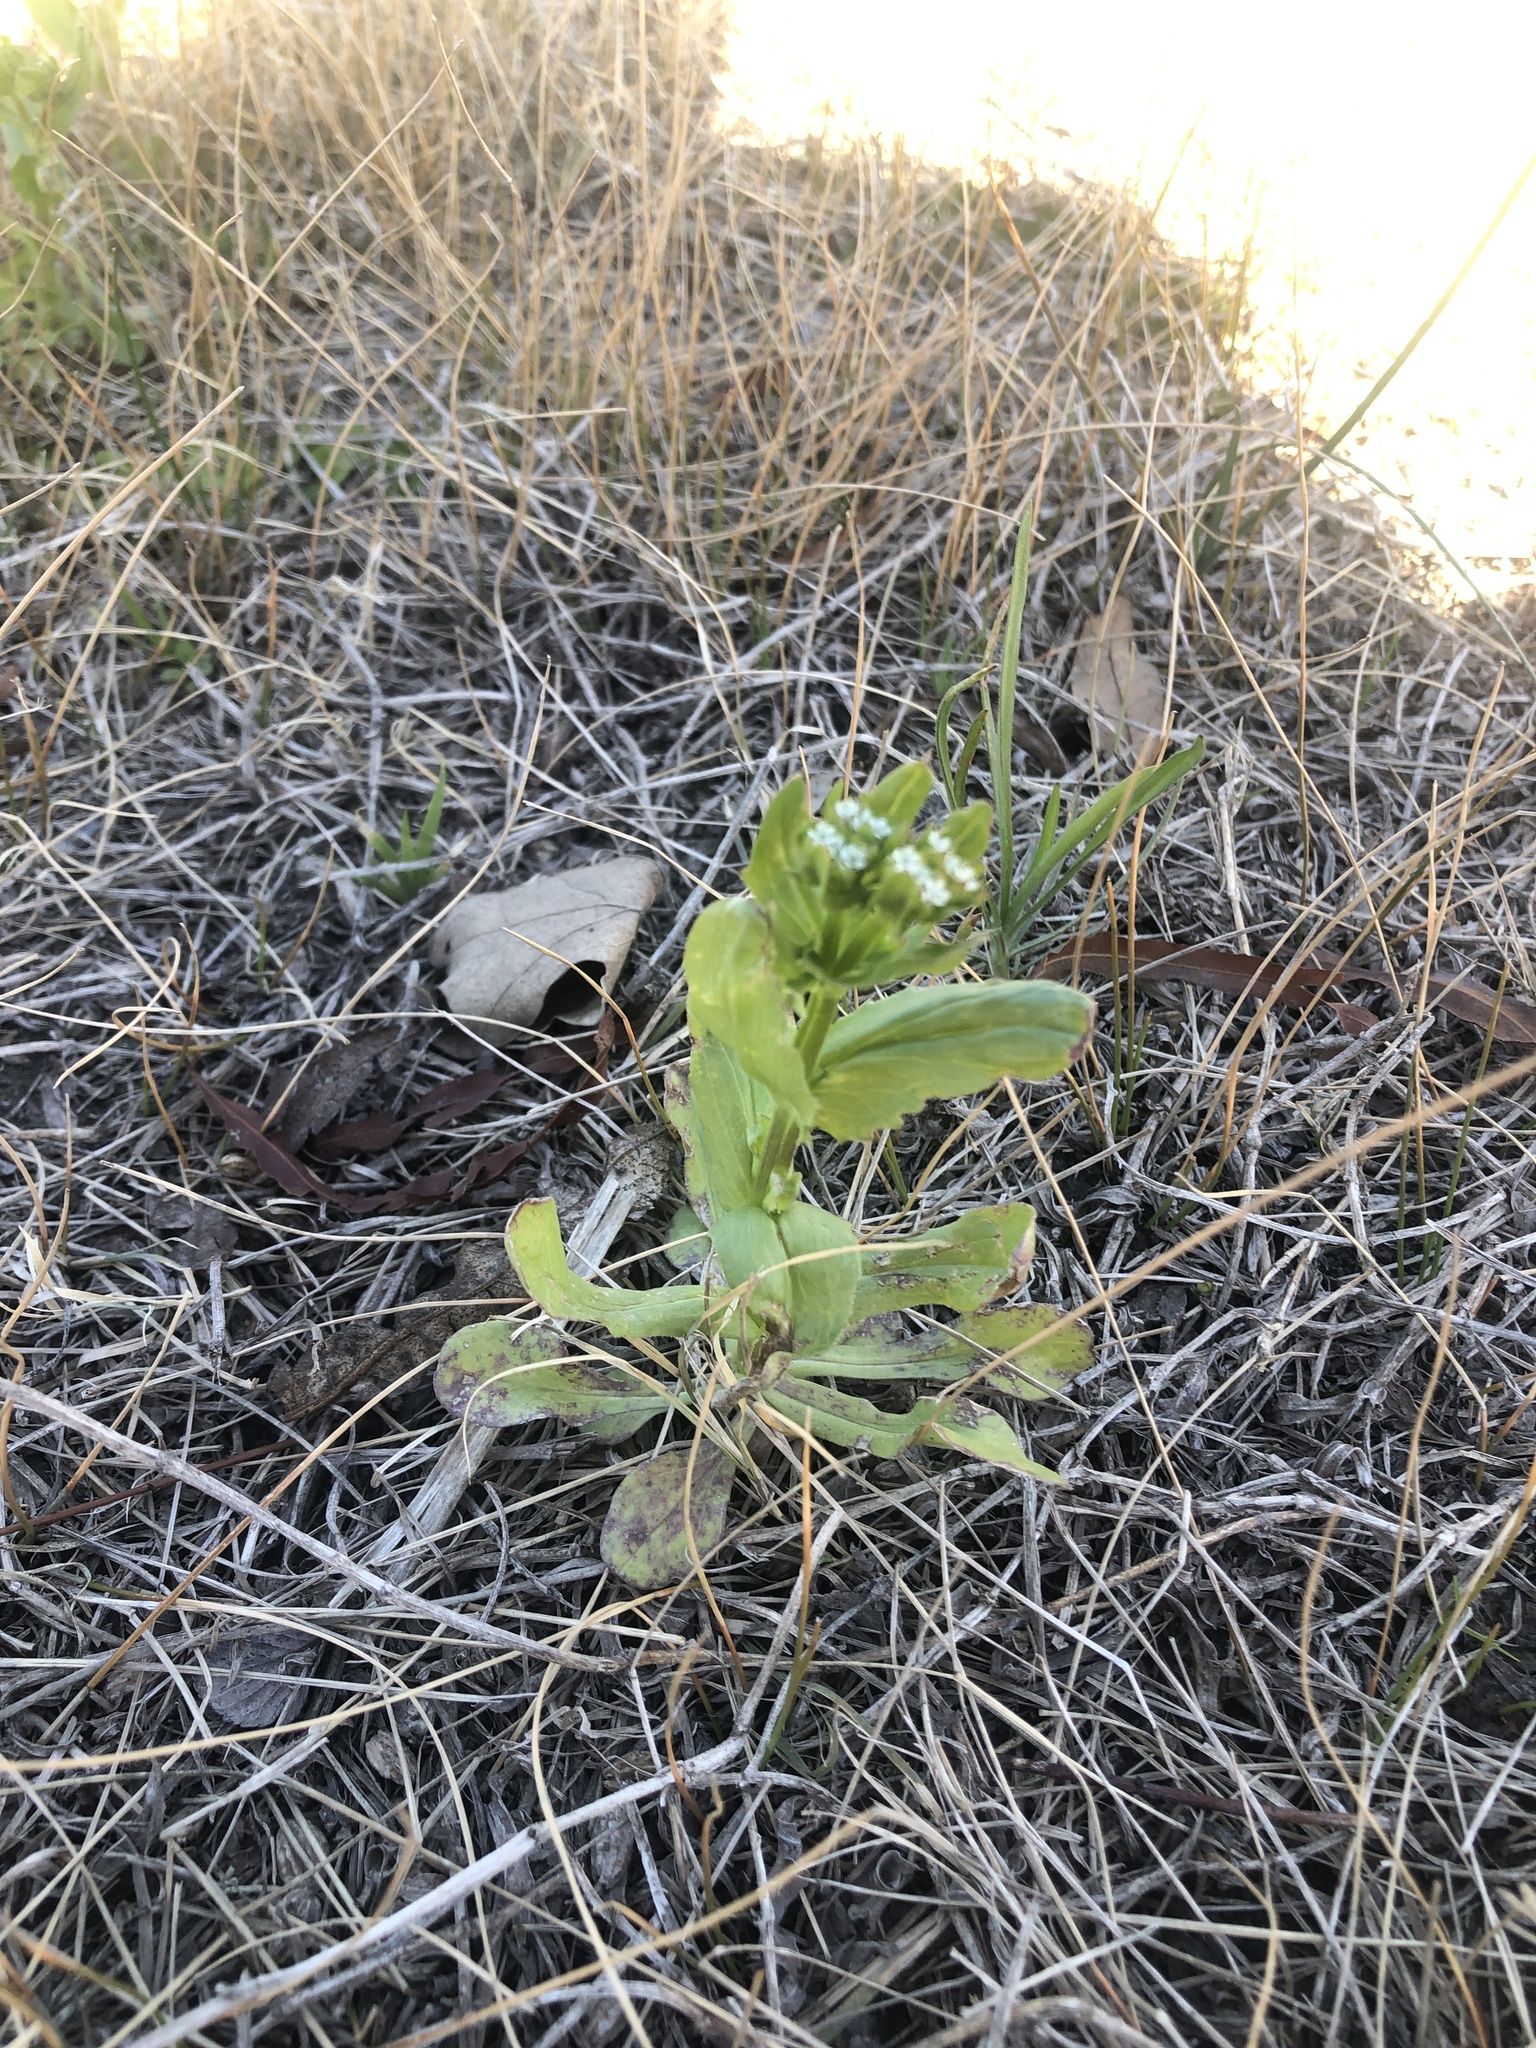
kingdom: Plantae
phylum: Tracheophyta
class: Magnoliopsida
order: Dipsacales
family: Caprifoliaceae
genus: Valerianella
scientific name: Valerianella radiata
